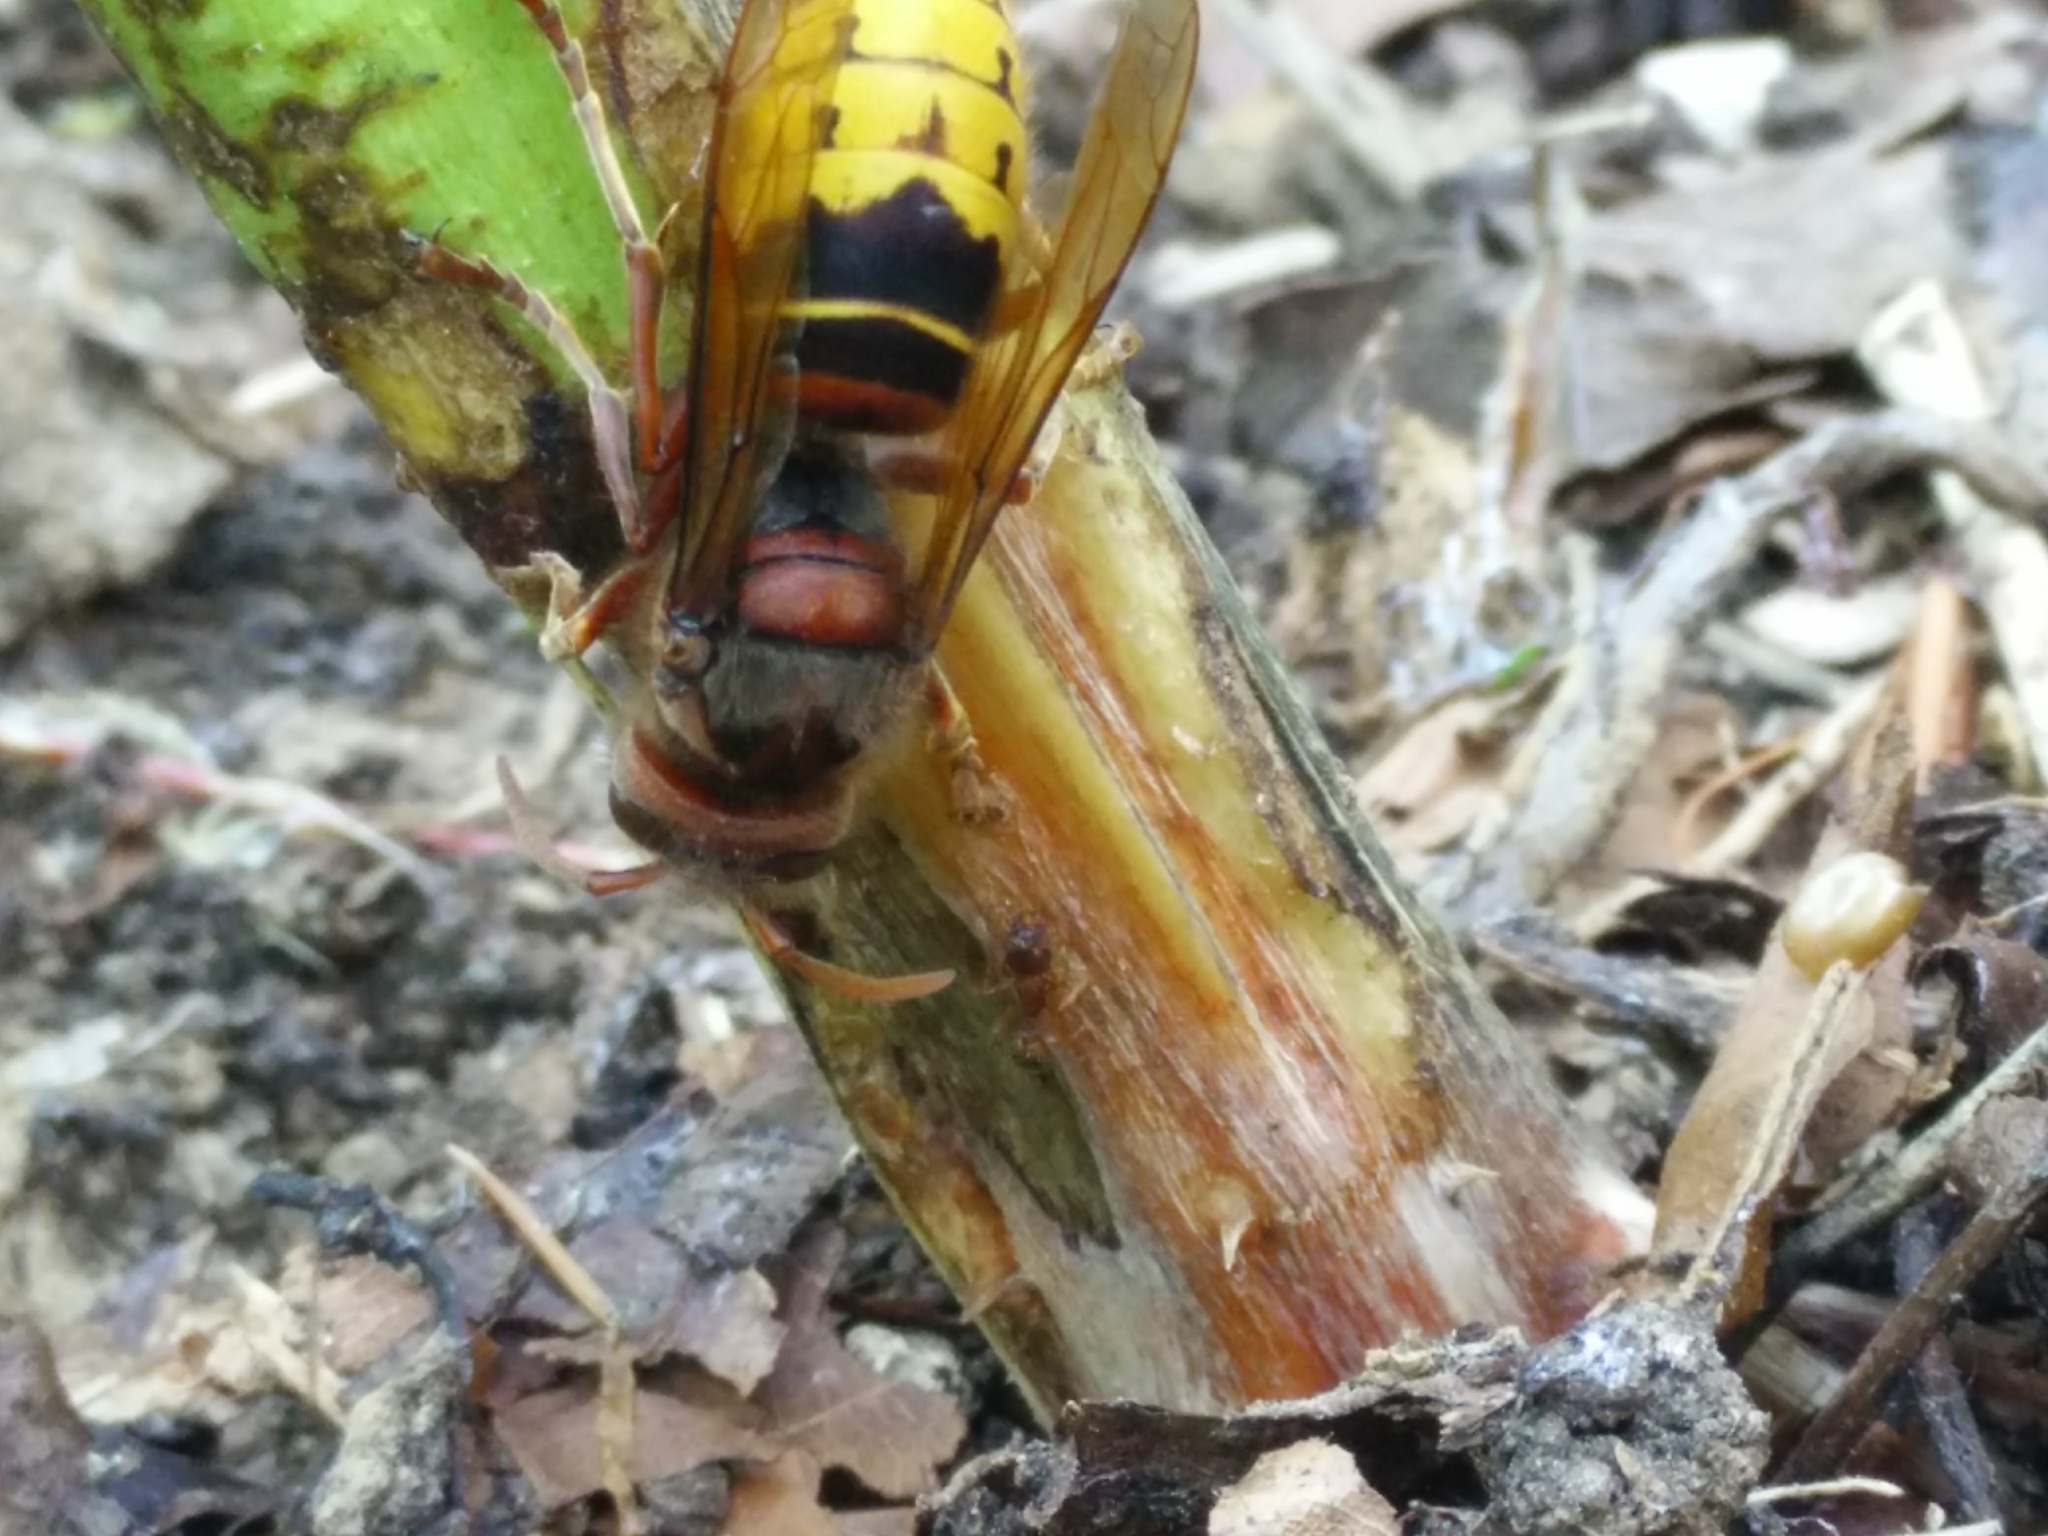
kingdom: Animalia
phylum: Arthropoda
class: Insecta
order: Hymenoptera
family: Vespidae
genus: Vespa
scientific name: Vespa crabro
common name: Hornet
